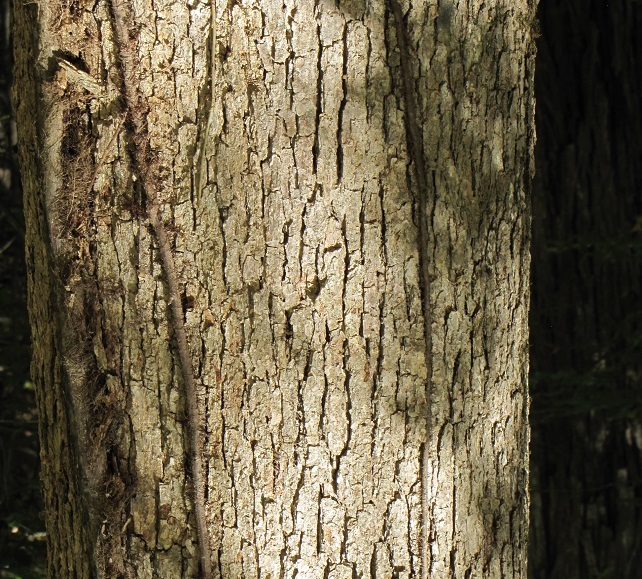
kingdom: Plantae
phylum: Tracheophyta
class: Magnoliopsida
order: Fagales
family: Fagaceae
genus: Quercus
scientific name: Quercus michauxii
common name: Swamp chestnut oak
